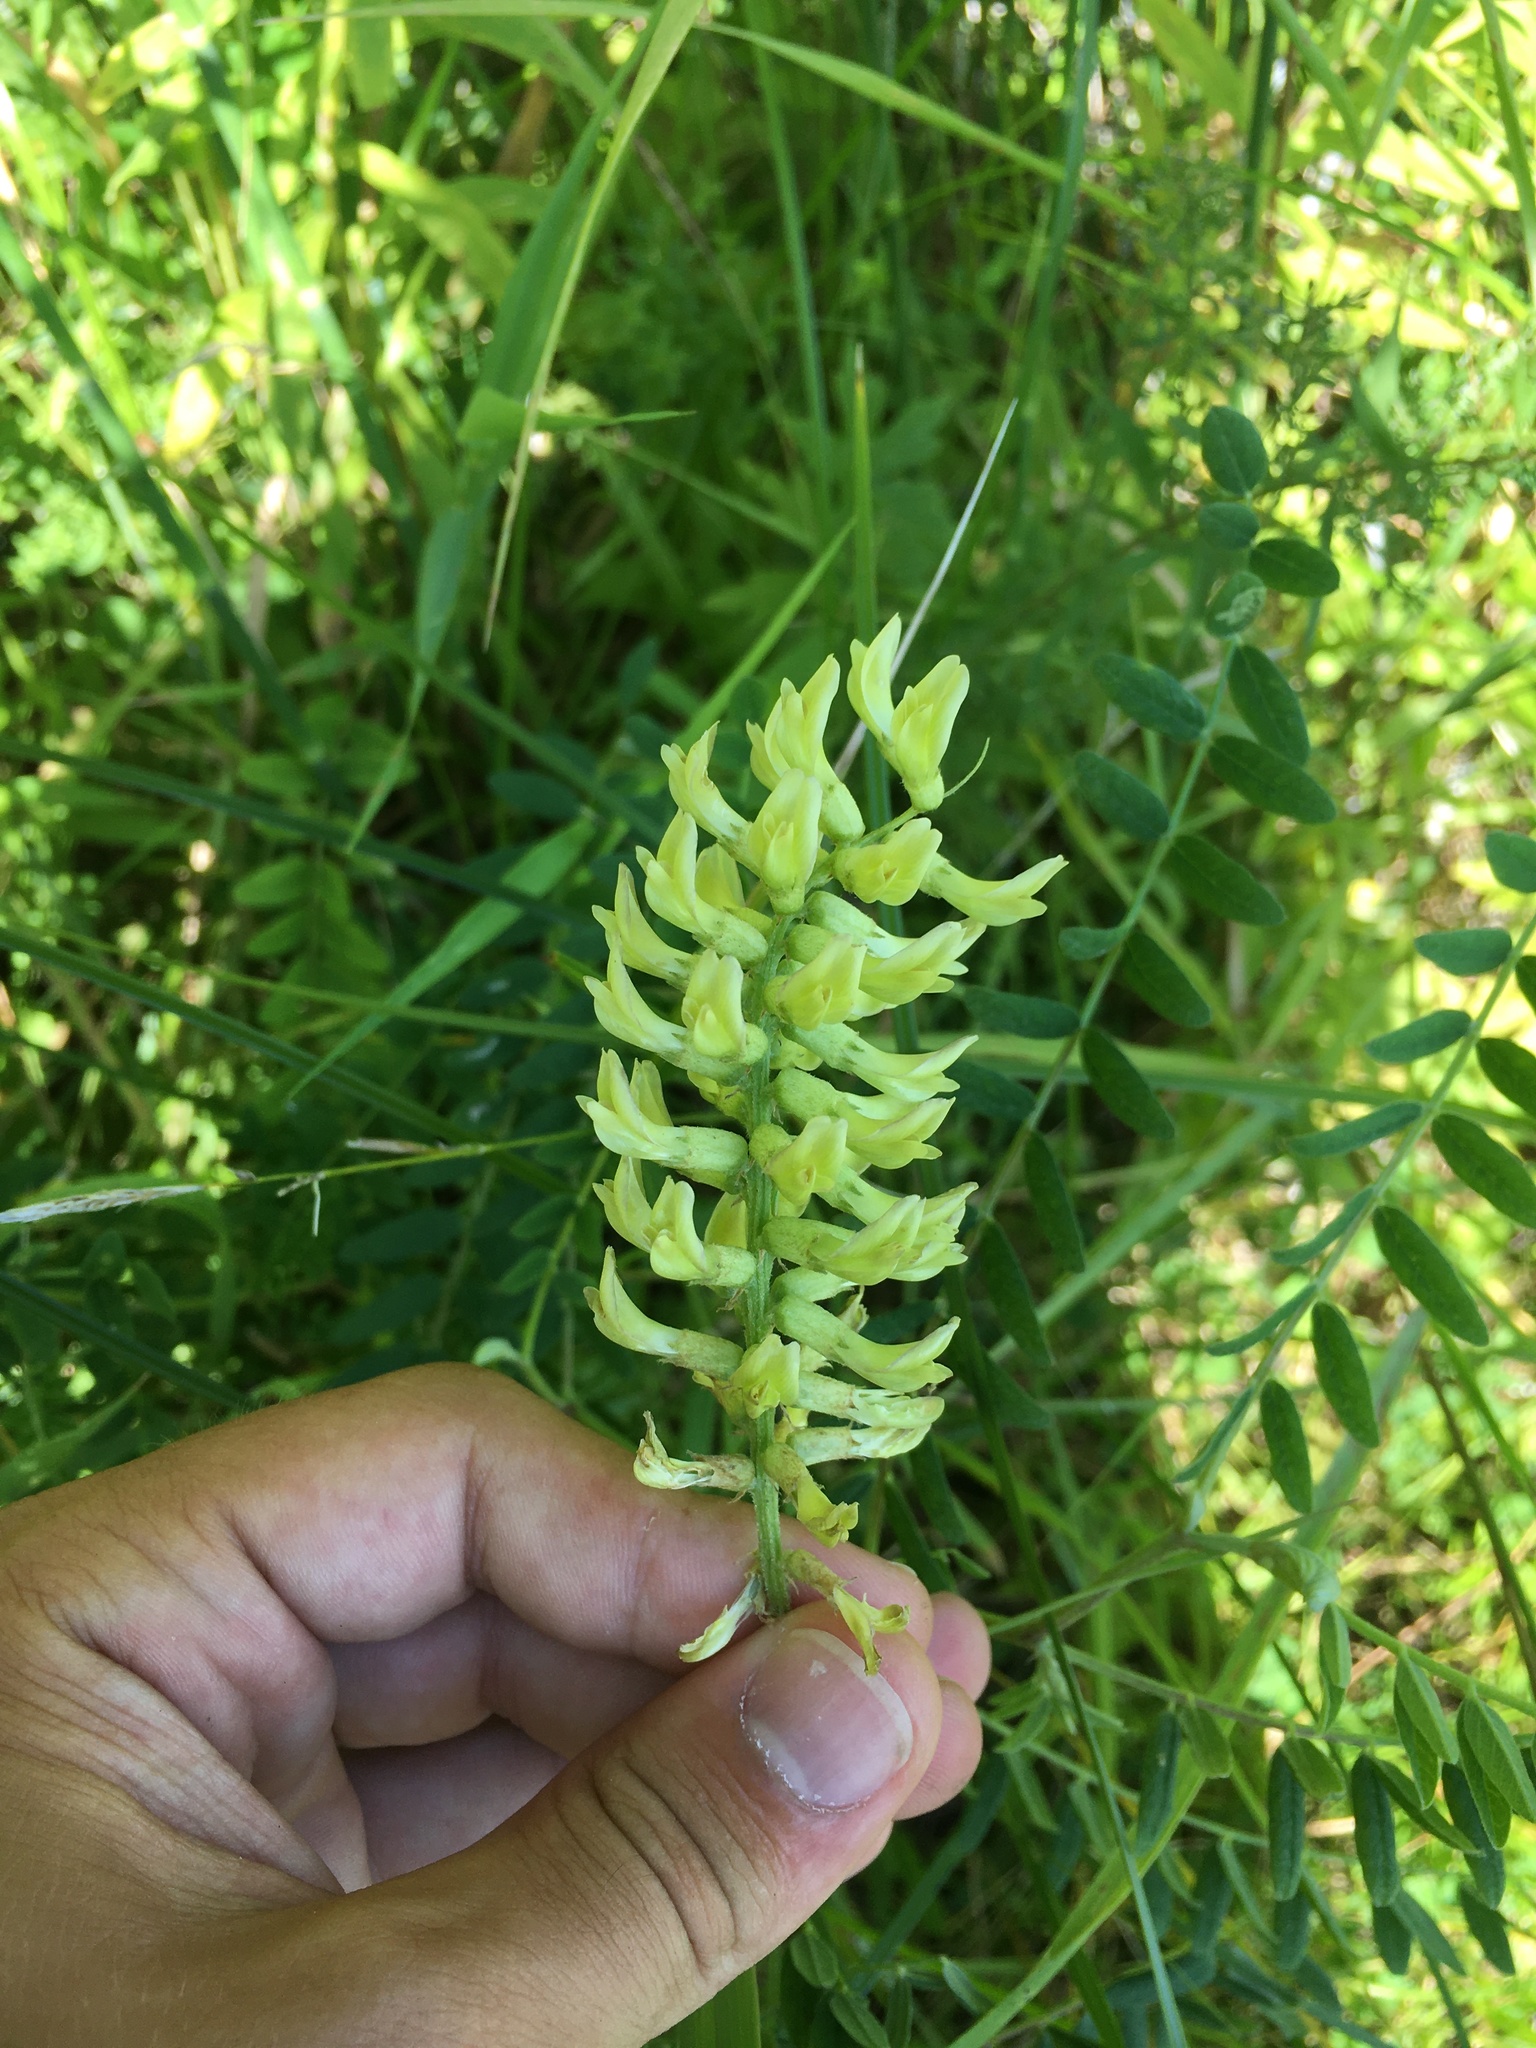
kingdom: Plantae
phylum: Tracheophyta
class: Magnoliopsida
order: Fabales
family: Fabaceae
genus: Astragalus
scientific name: Astragalus canadensis
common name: Canada milk-vetch
